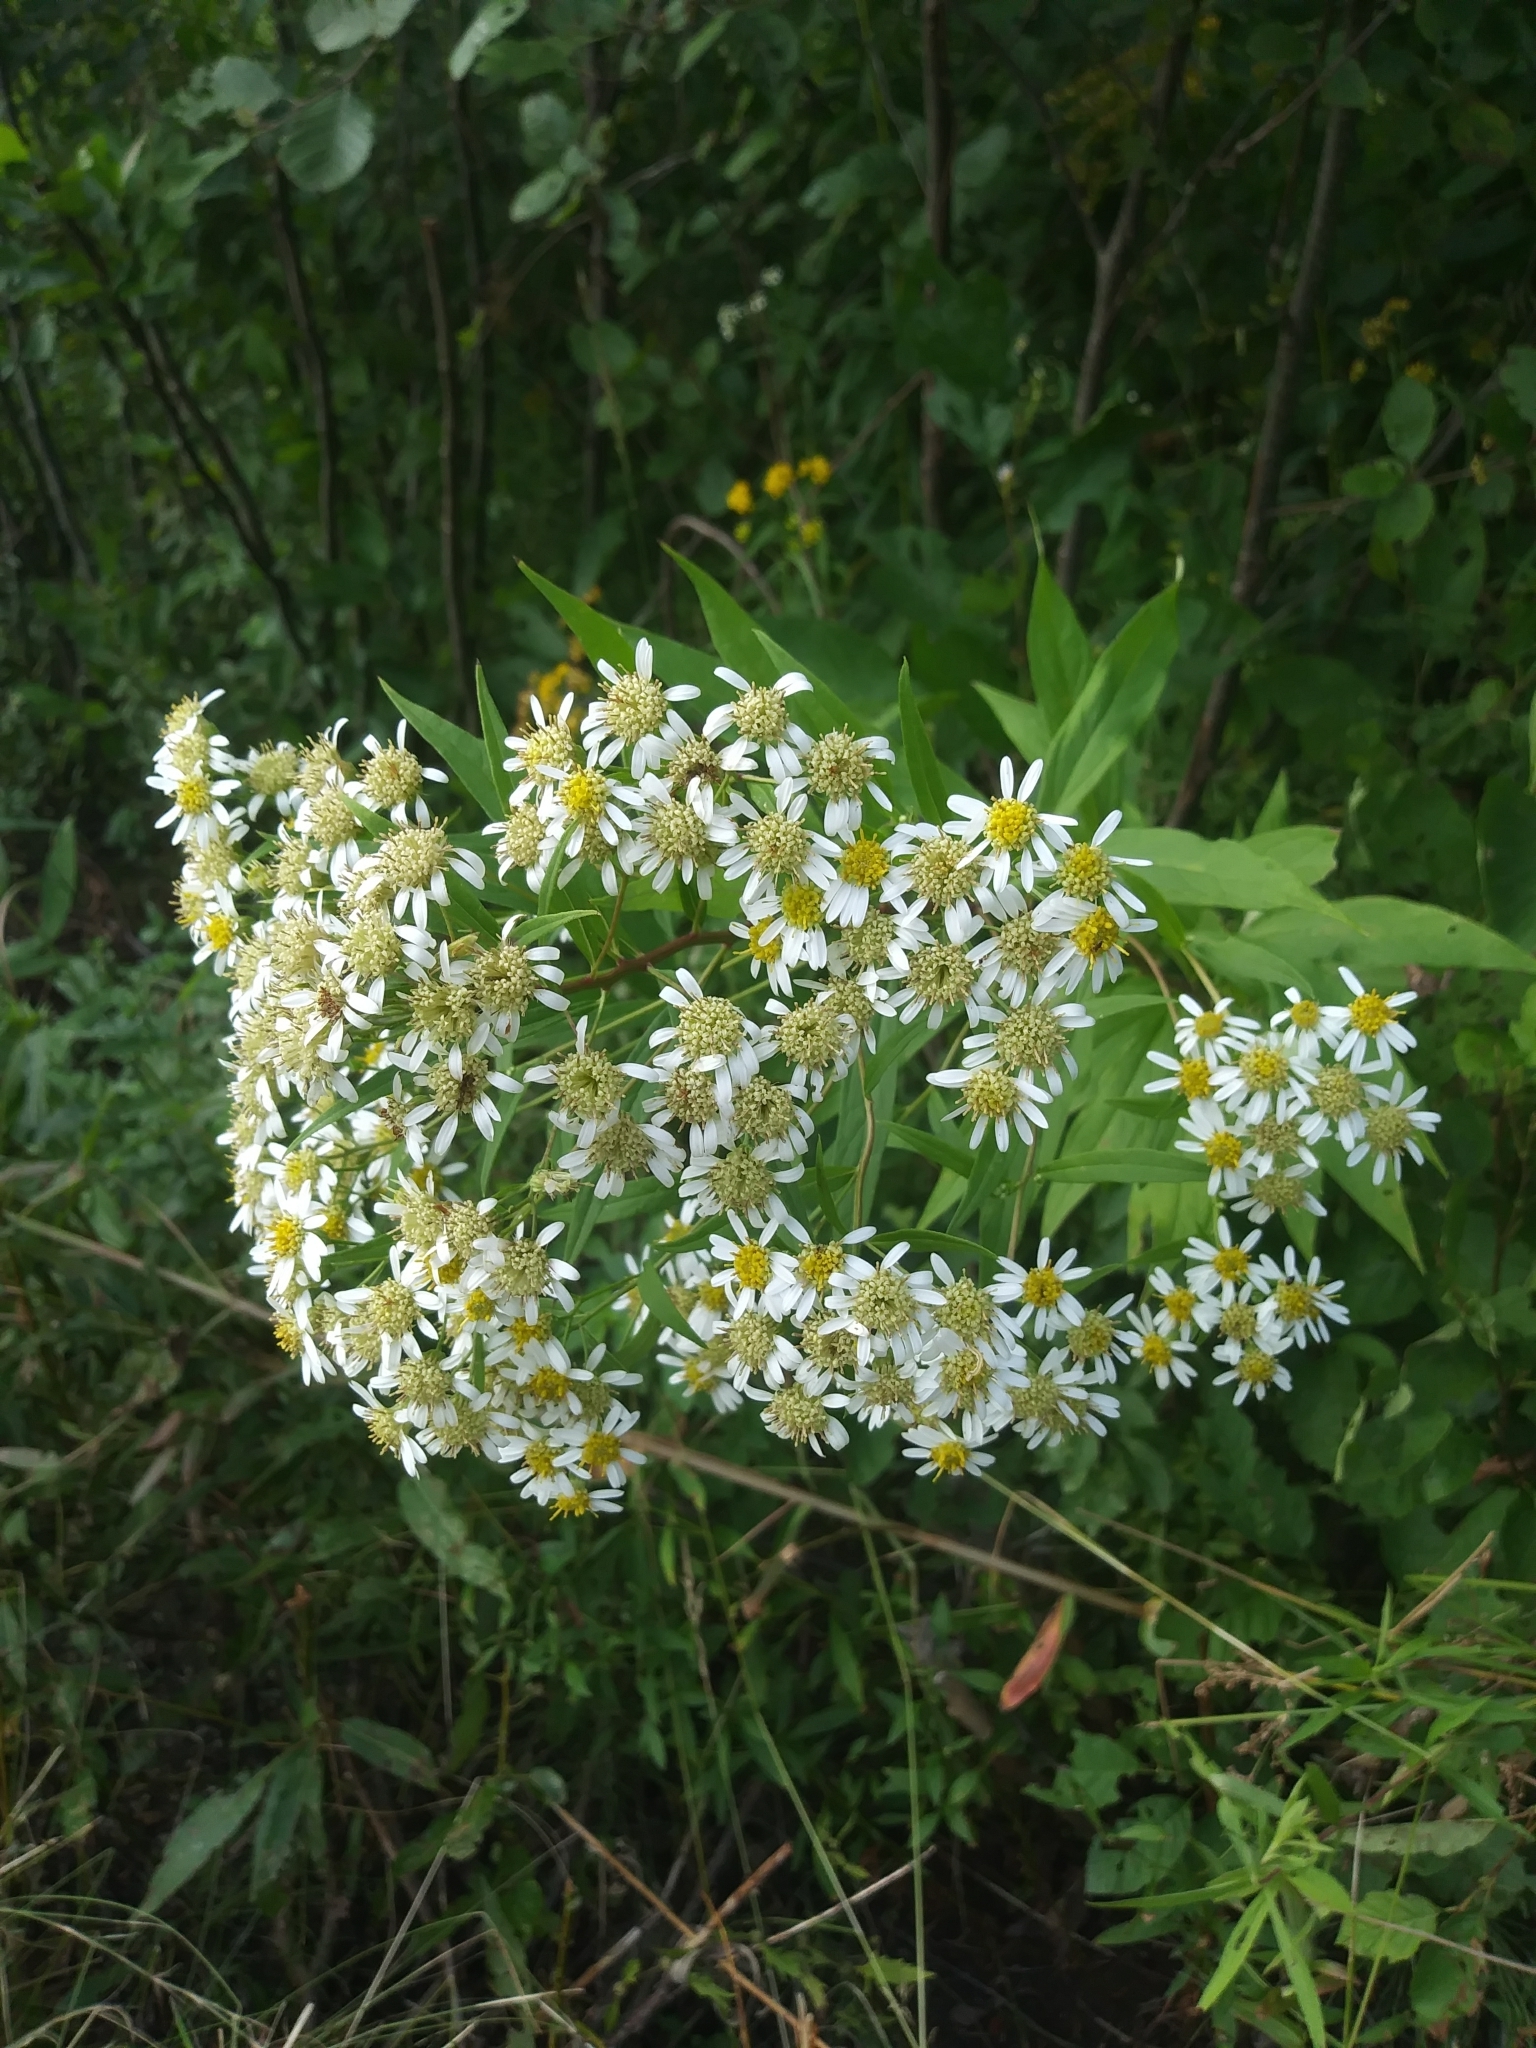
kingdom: Plantae
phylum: Tracheophyta
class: Magnoliopsida
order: Asterales
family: Asteraceae
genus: Doellingeria
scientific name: Doellingeria umbellata
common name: Flat-top white aster
